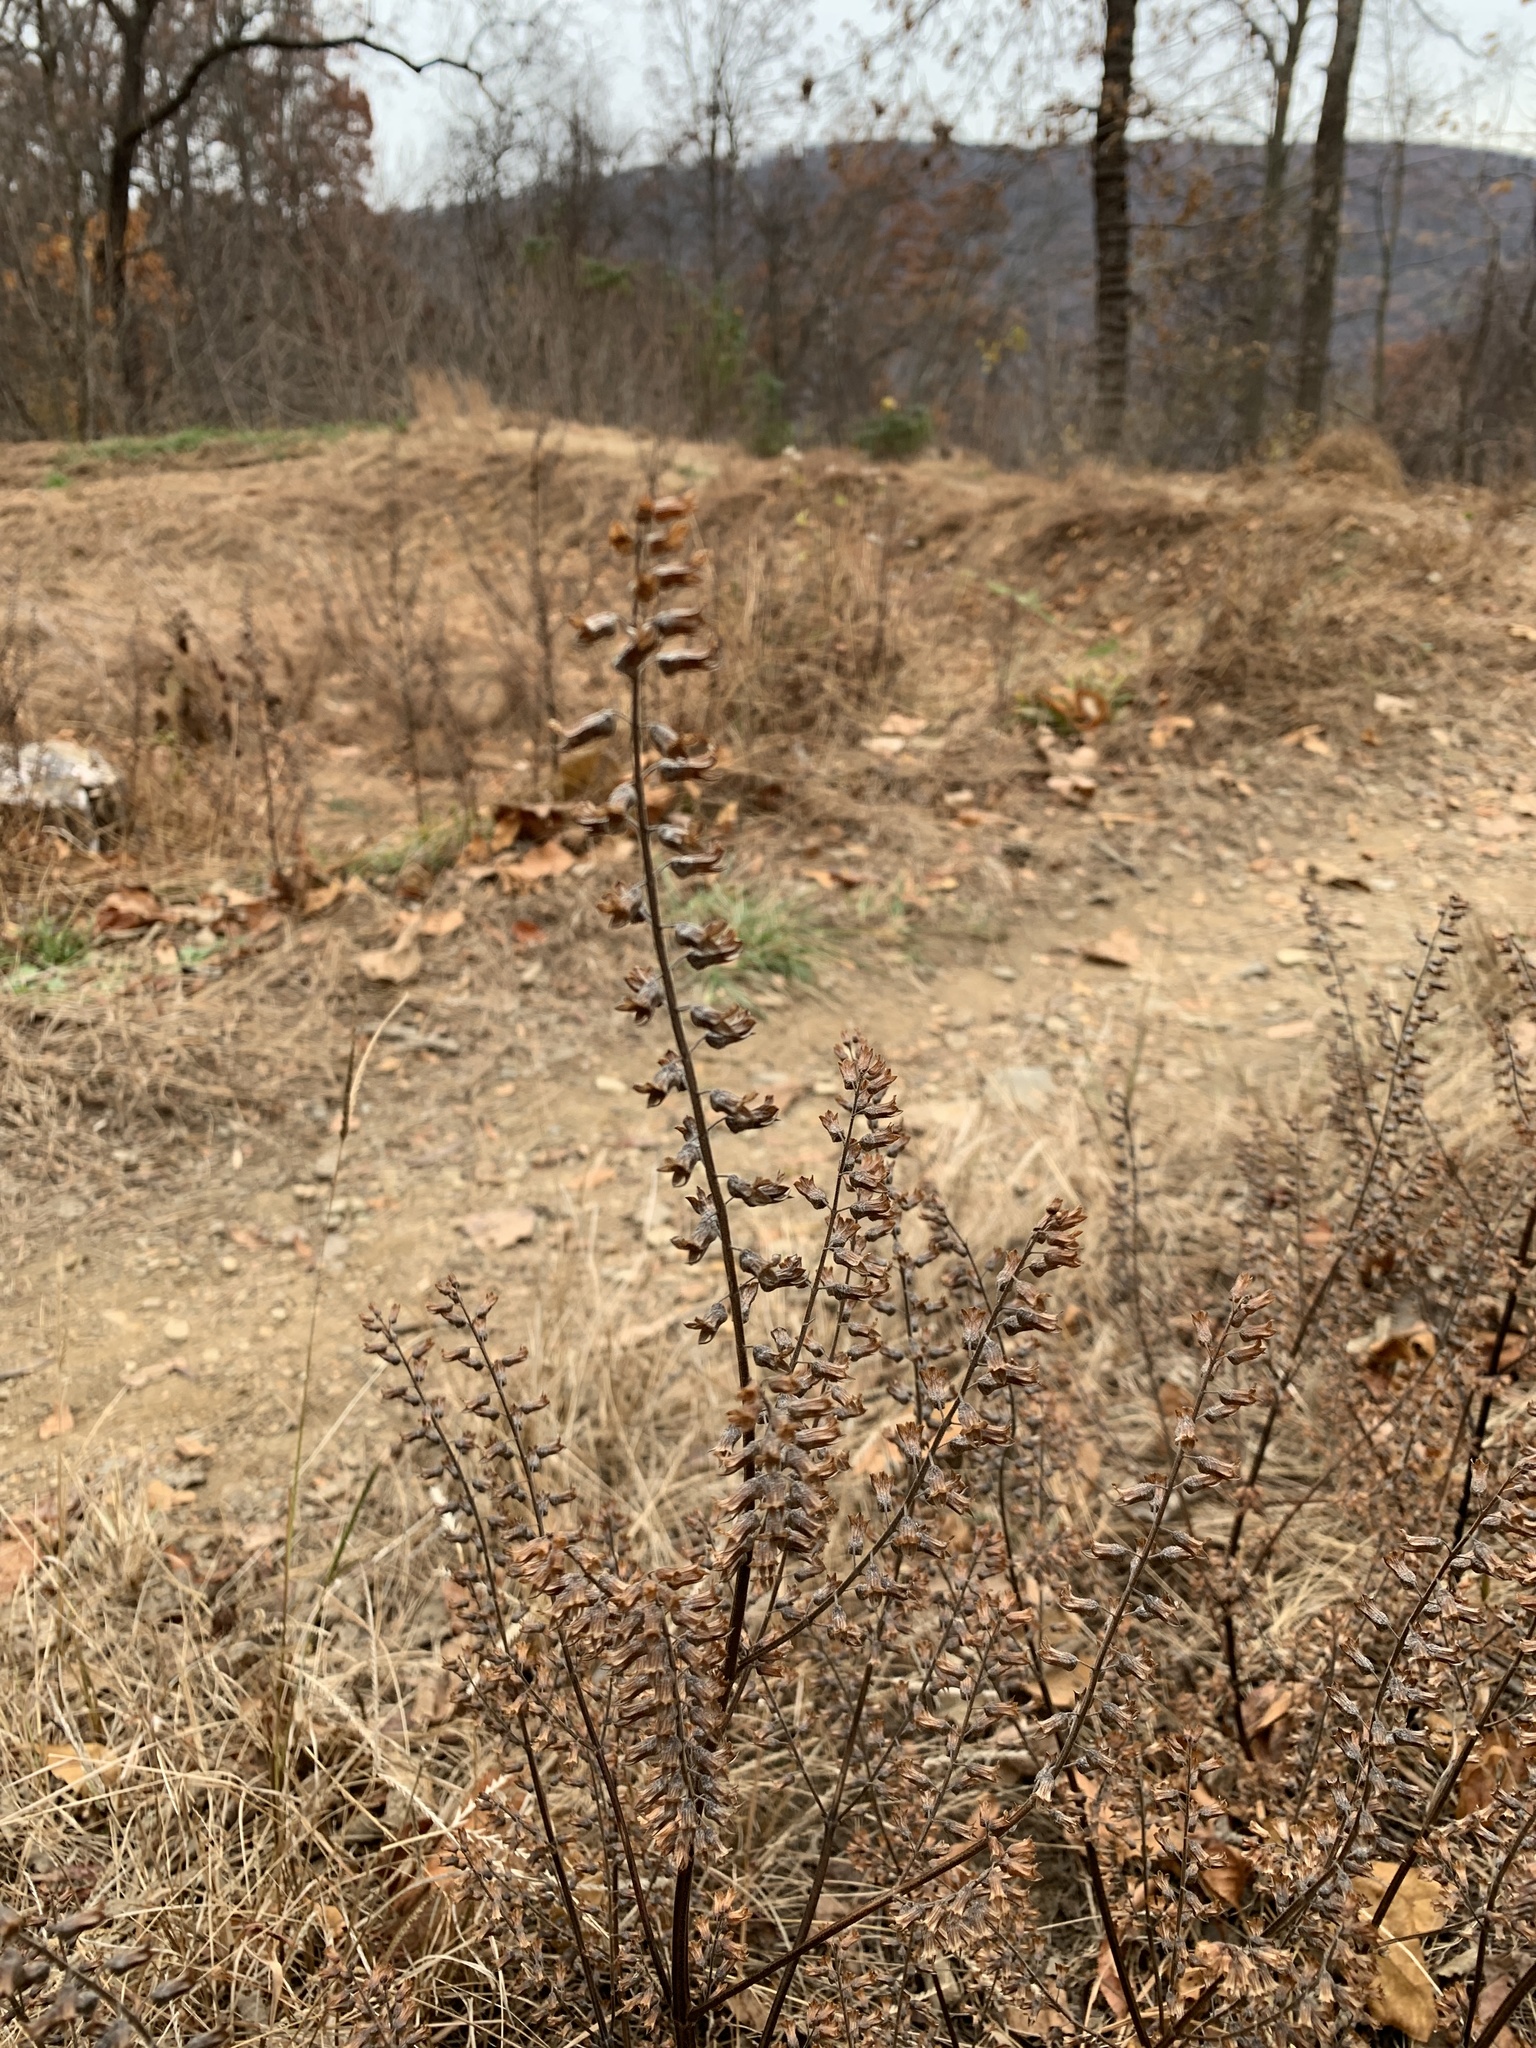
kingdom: Plantae
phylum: Tracheophyta
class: Magnoliopsida
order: Lamiales
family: Lamiaceae
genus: Perilla
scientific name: Perilla frutescens
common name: Perilla
